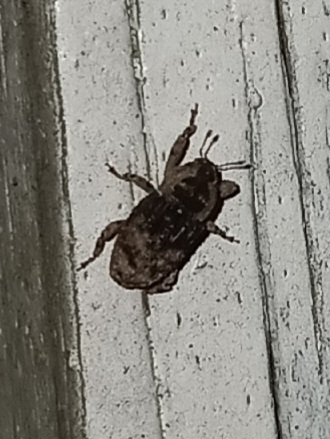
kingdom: Animalia
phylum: Arthropoda
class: Insecta
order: Coleoptera
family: Curculionidae
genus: Cophes
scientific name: Cophes fallax
